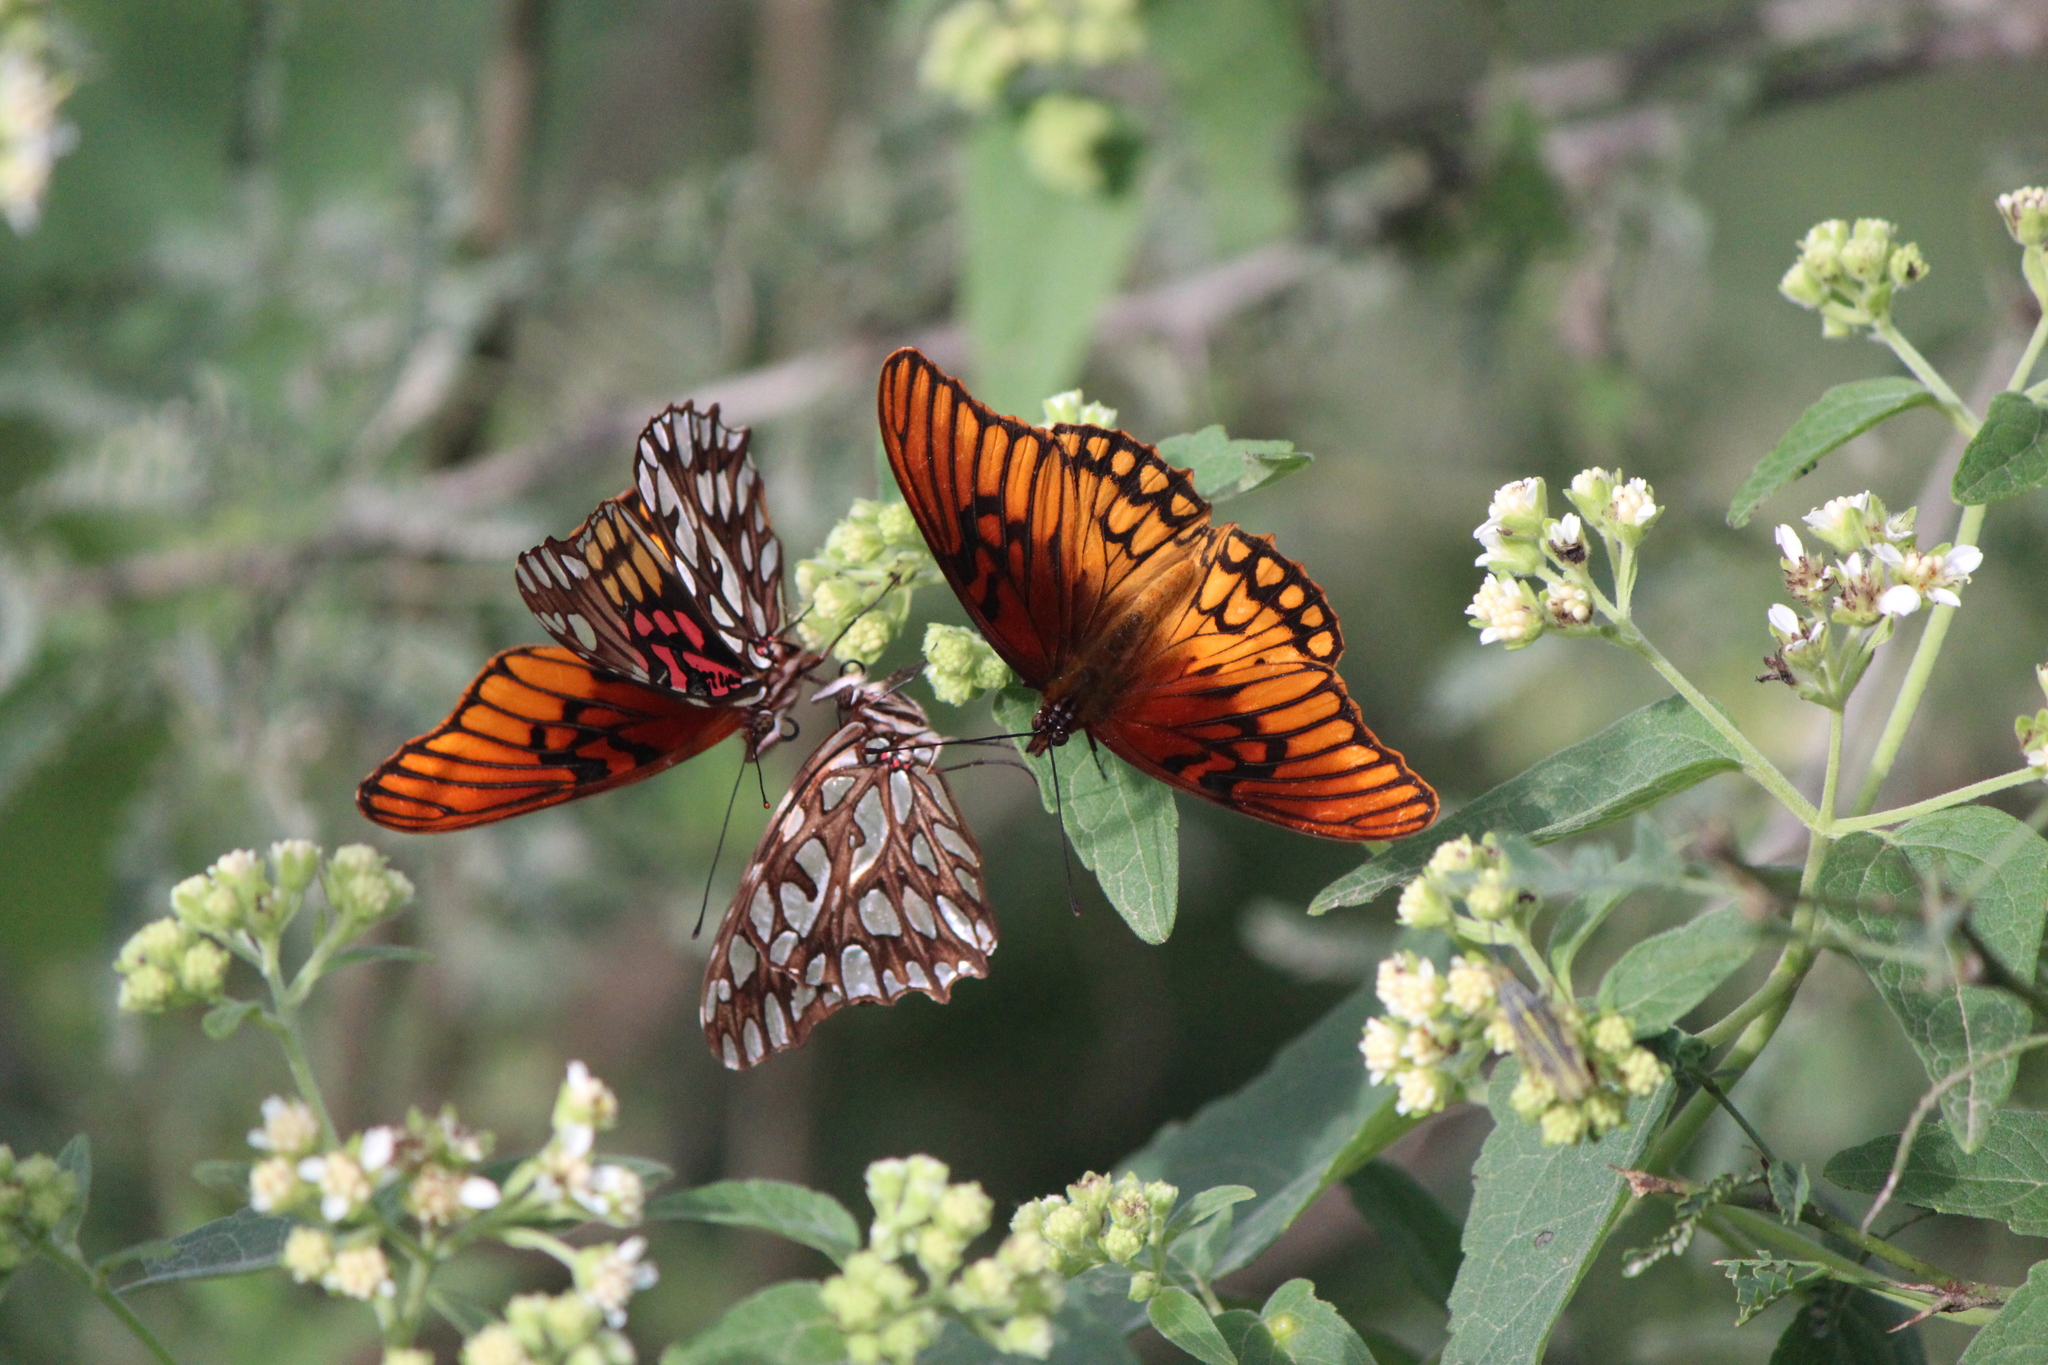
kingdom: Animalia
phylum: Arthropoda
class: Insecta
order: Lepidoptera
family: Nymphalidae
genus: Dione
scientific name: Dione moneta
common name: Mexican silverspot
